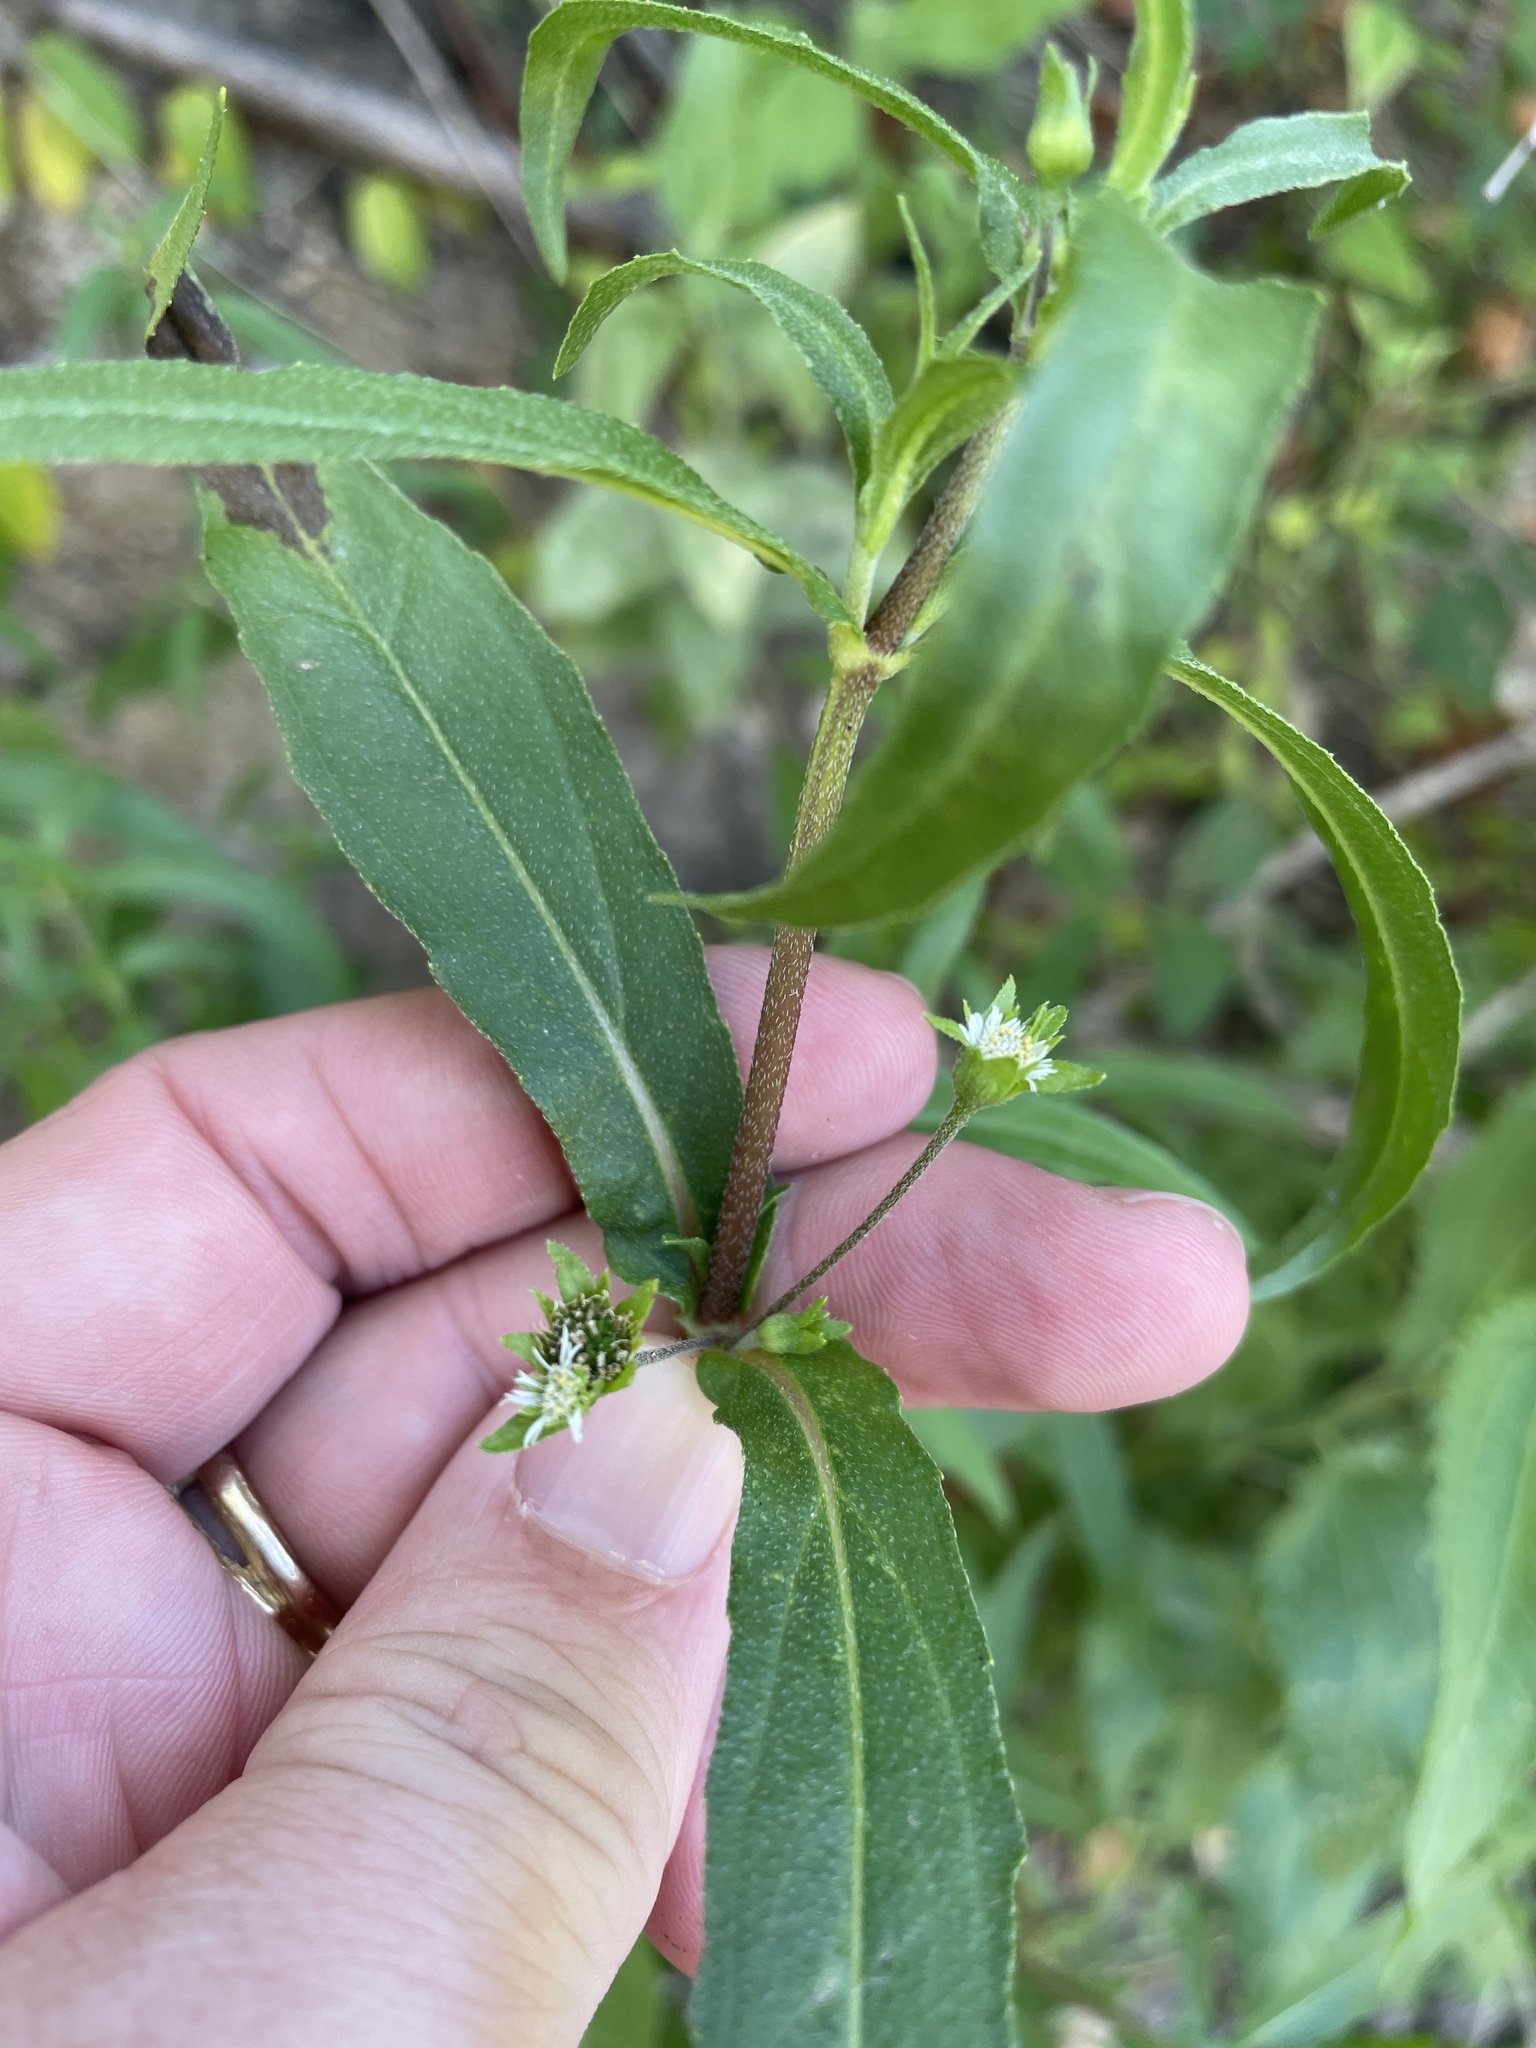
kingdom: Plantae
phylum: Tracheophyta
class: Magnoliopsida
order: Asterales
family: Asteraceae
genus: Eclipta
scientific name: Eclipta prostrata
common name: False daisy
